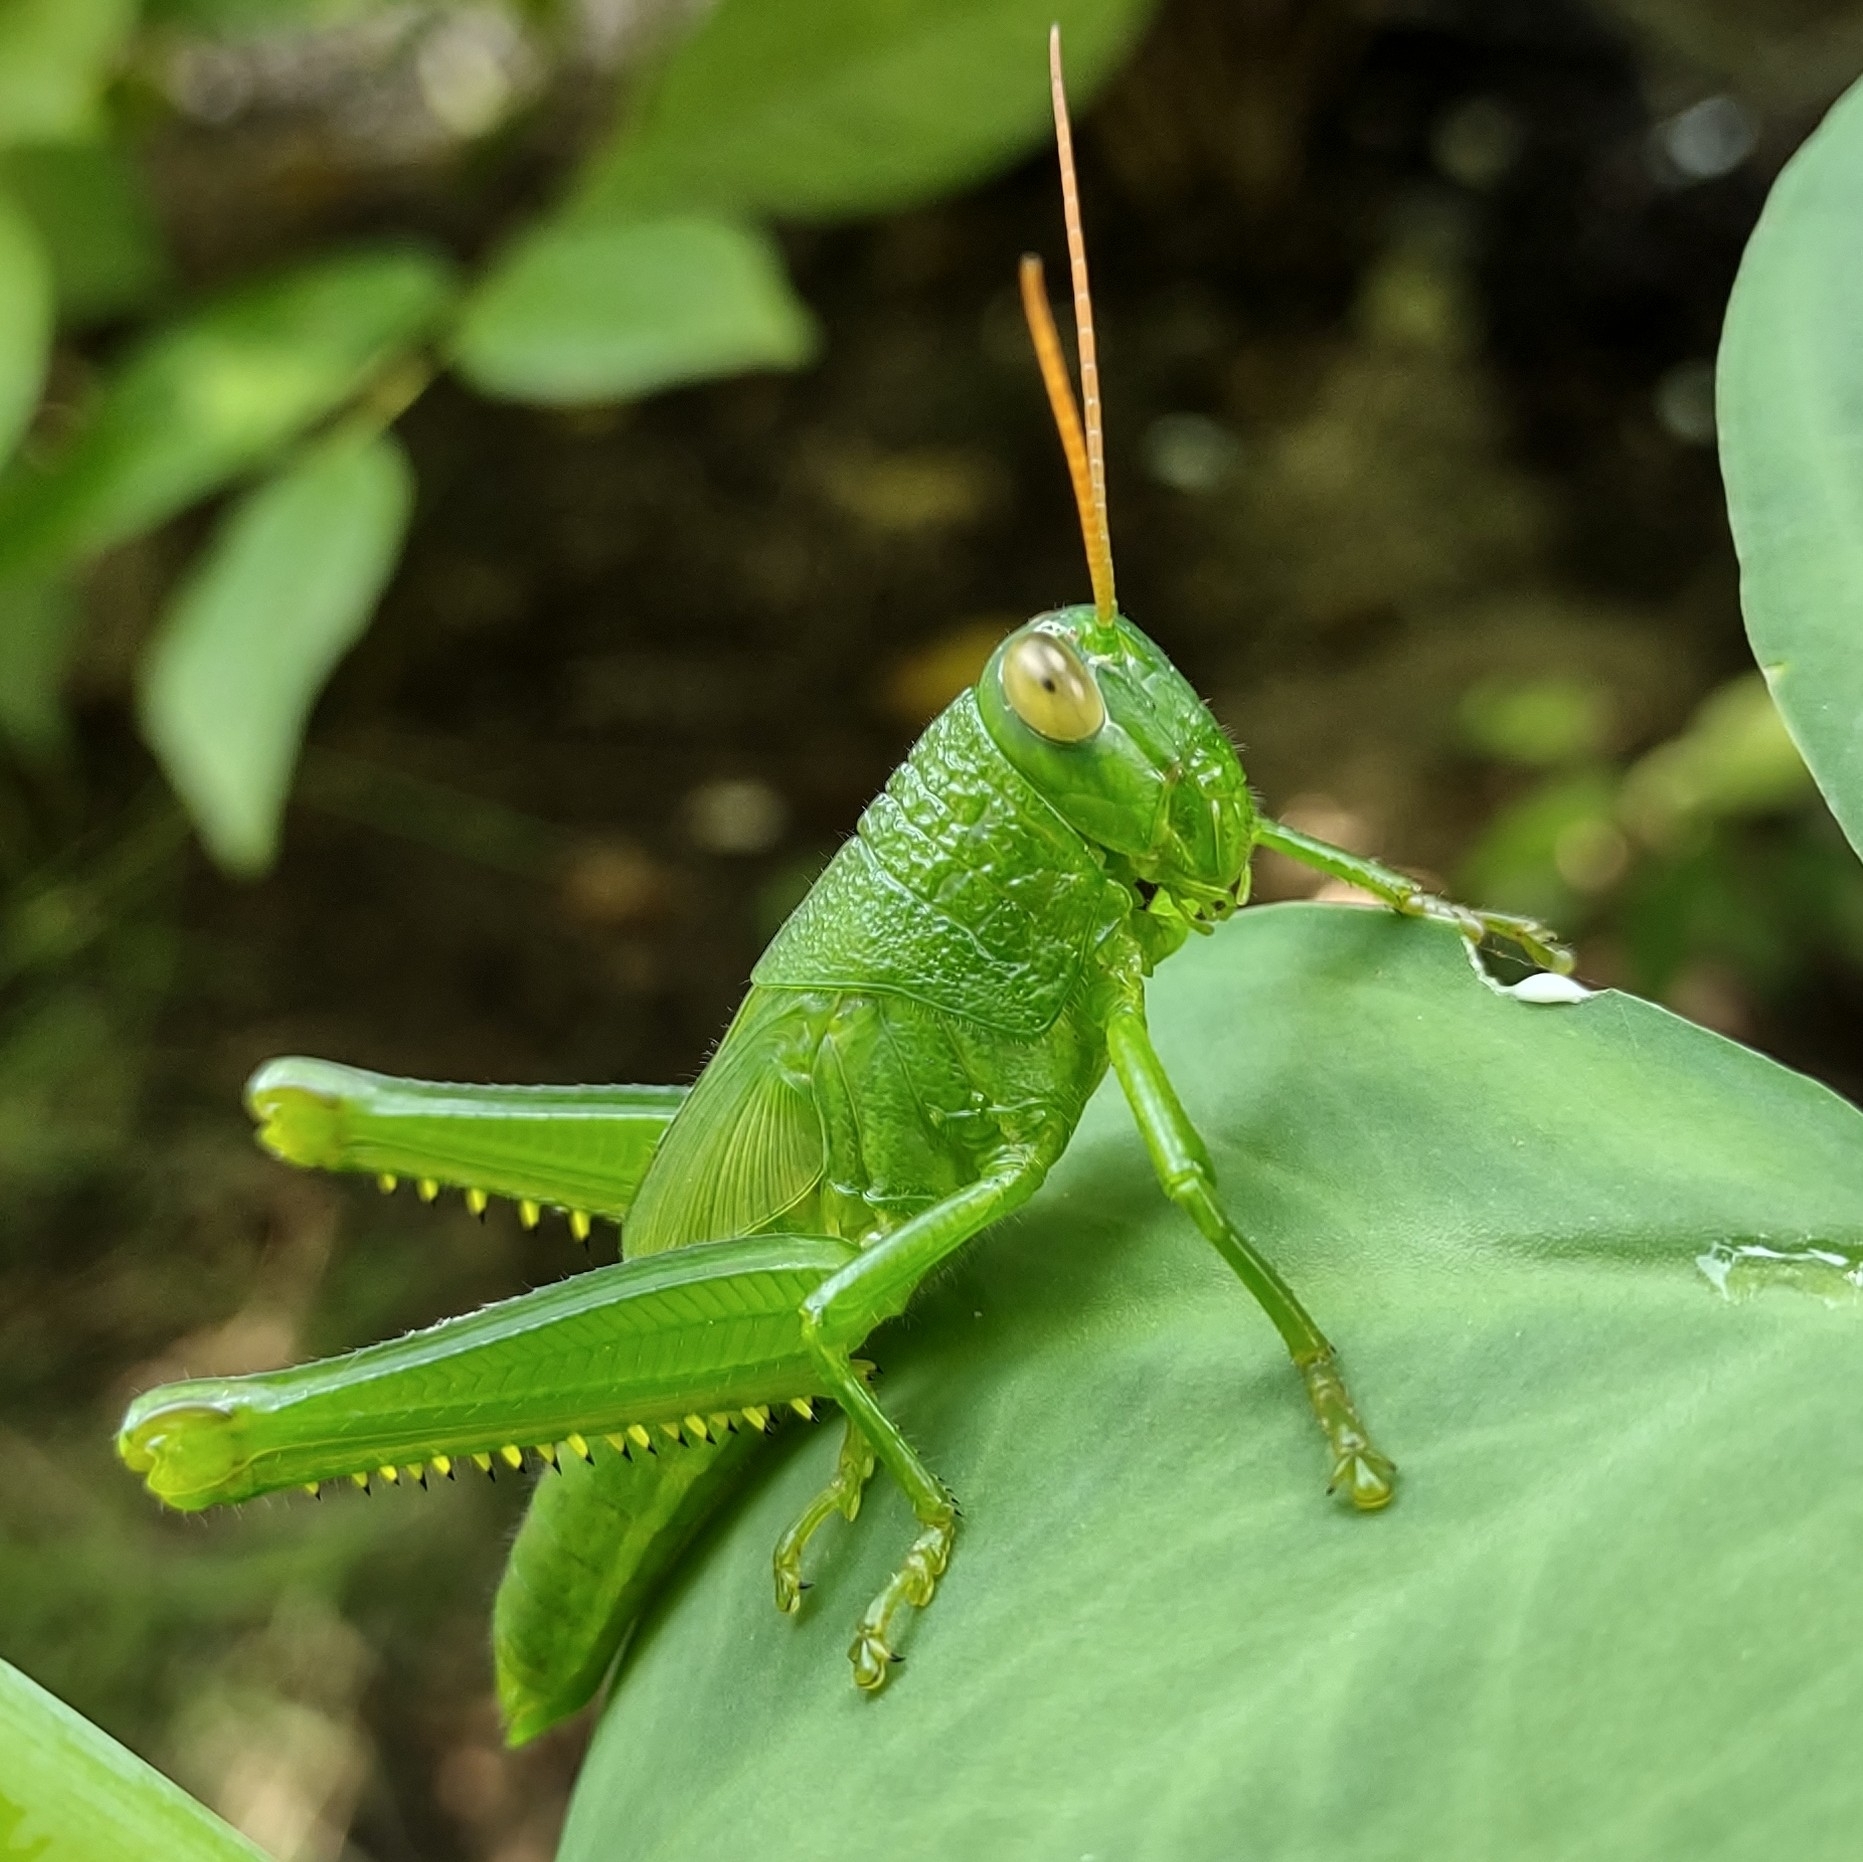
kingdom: Animalia
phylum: Arthropoda
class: Insecta
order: Orthoptera
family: Acrididae
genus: Melicodes
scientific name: Melicodes tenebrosus
